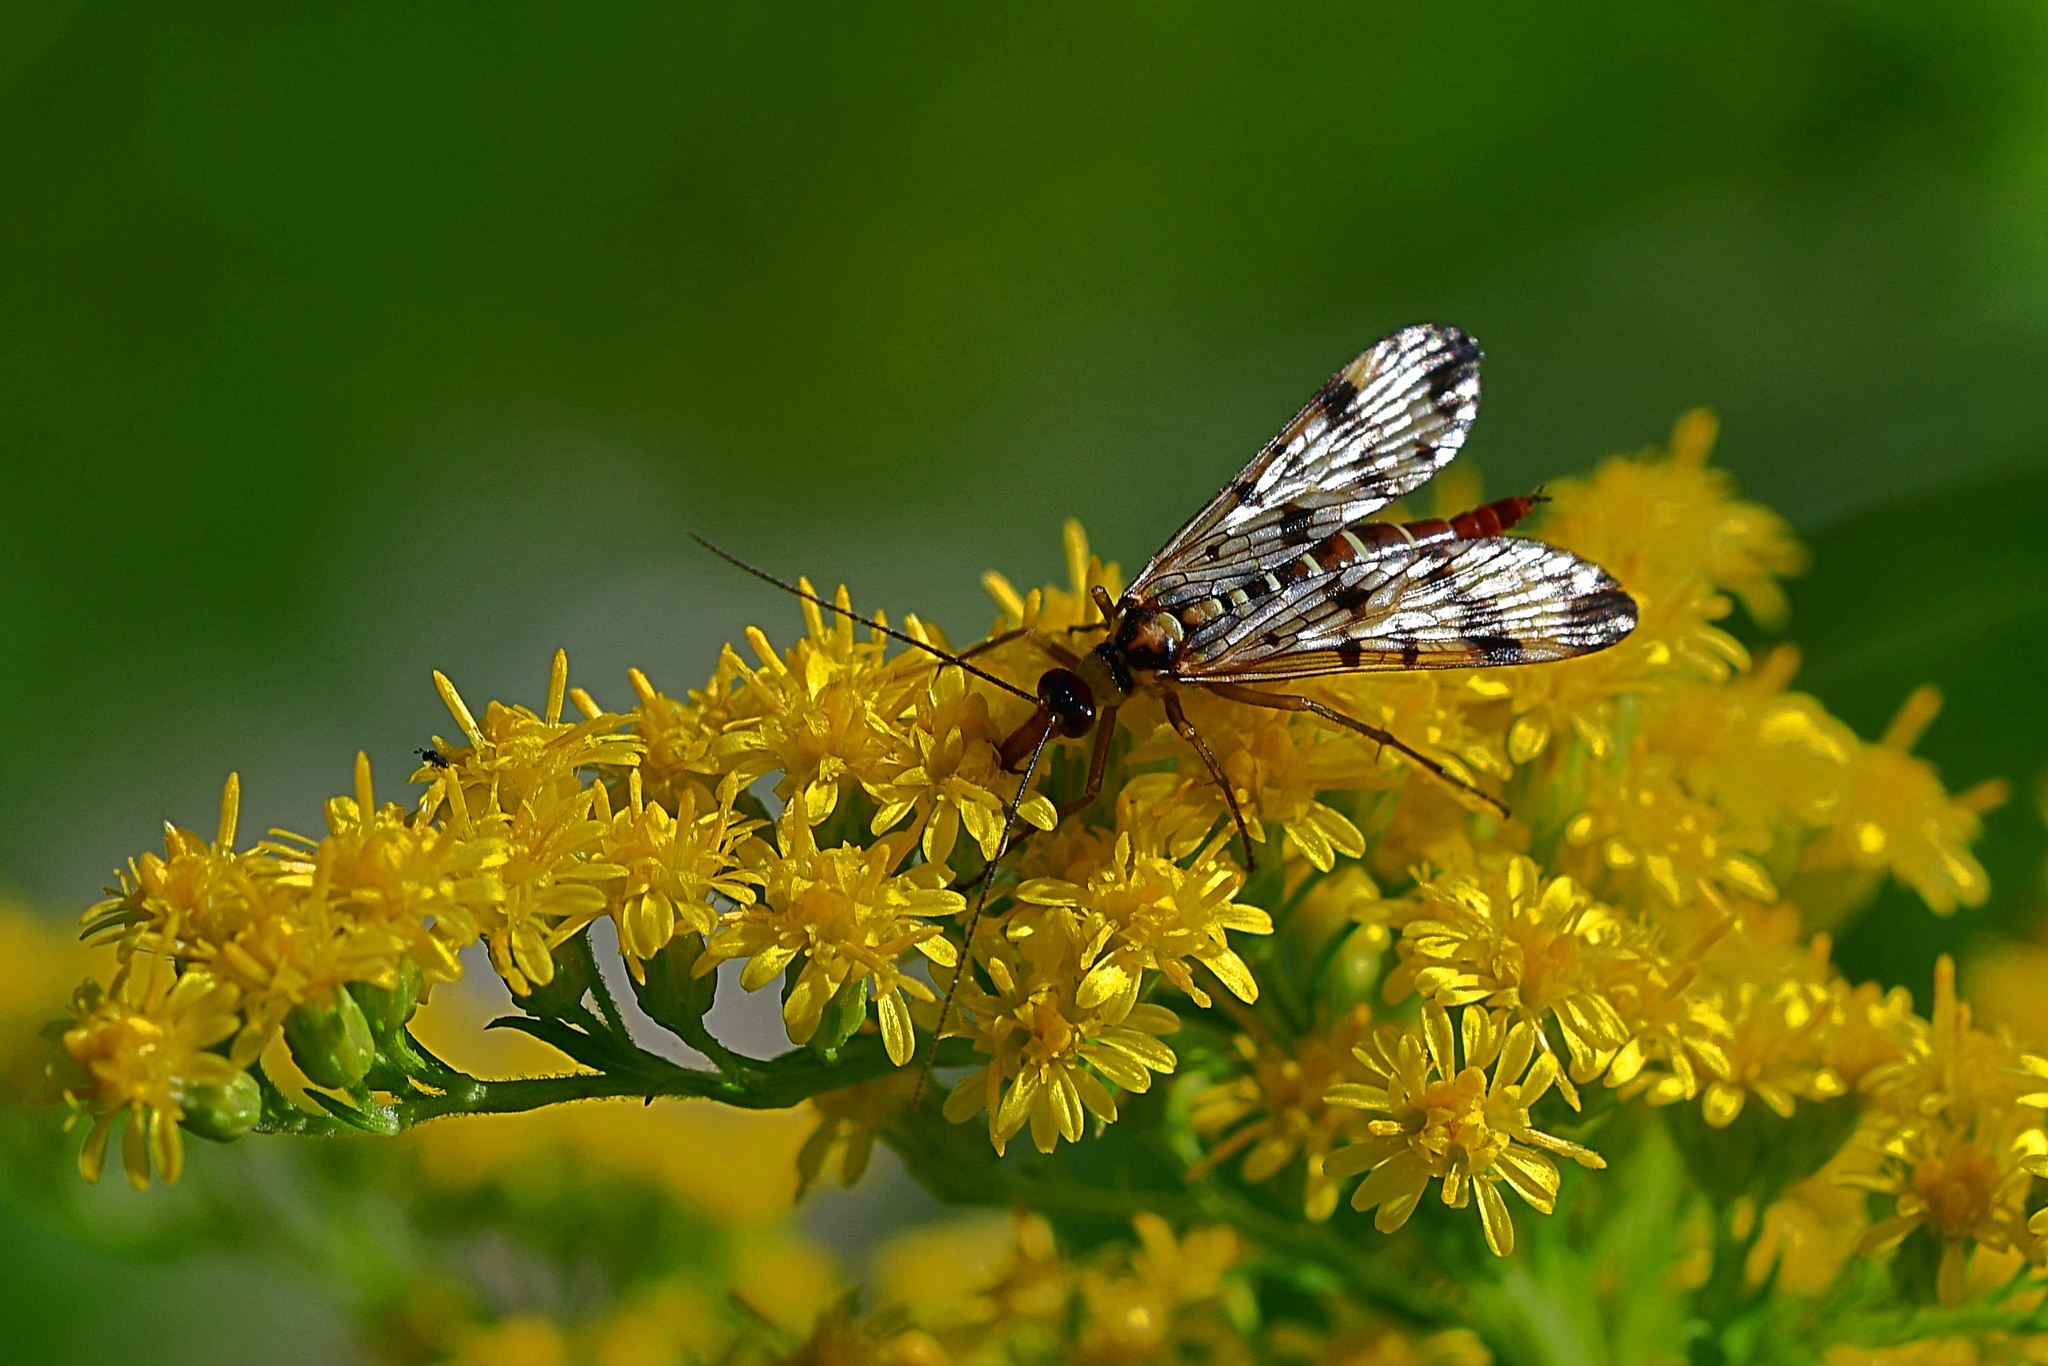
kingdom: Animalia
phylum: Arthropoda
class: Insecta
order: Mecoptera
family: Panorpidae
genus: Panorpa
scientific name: Panorpa communis
